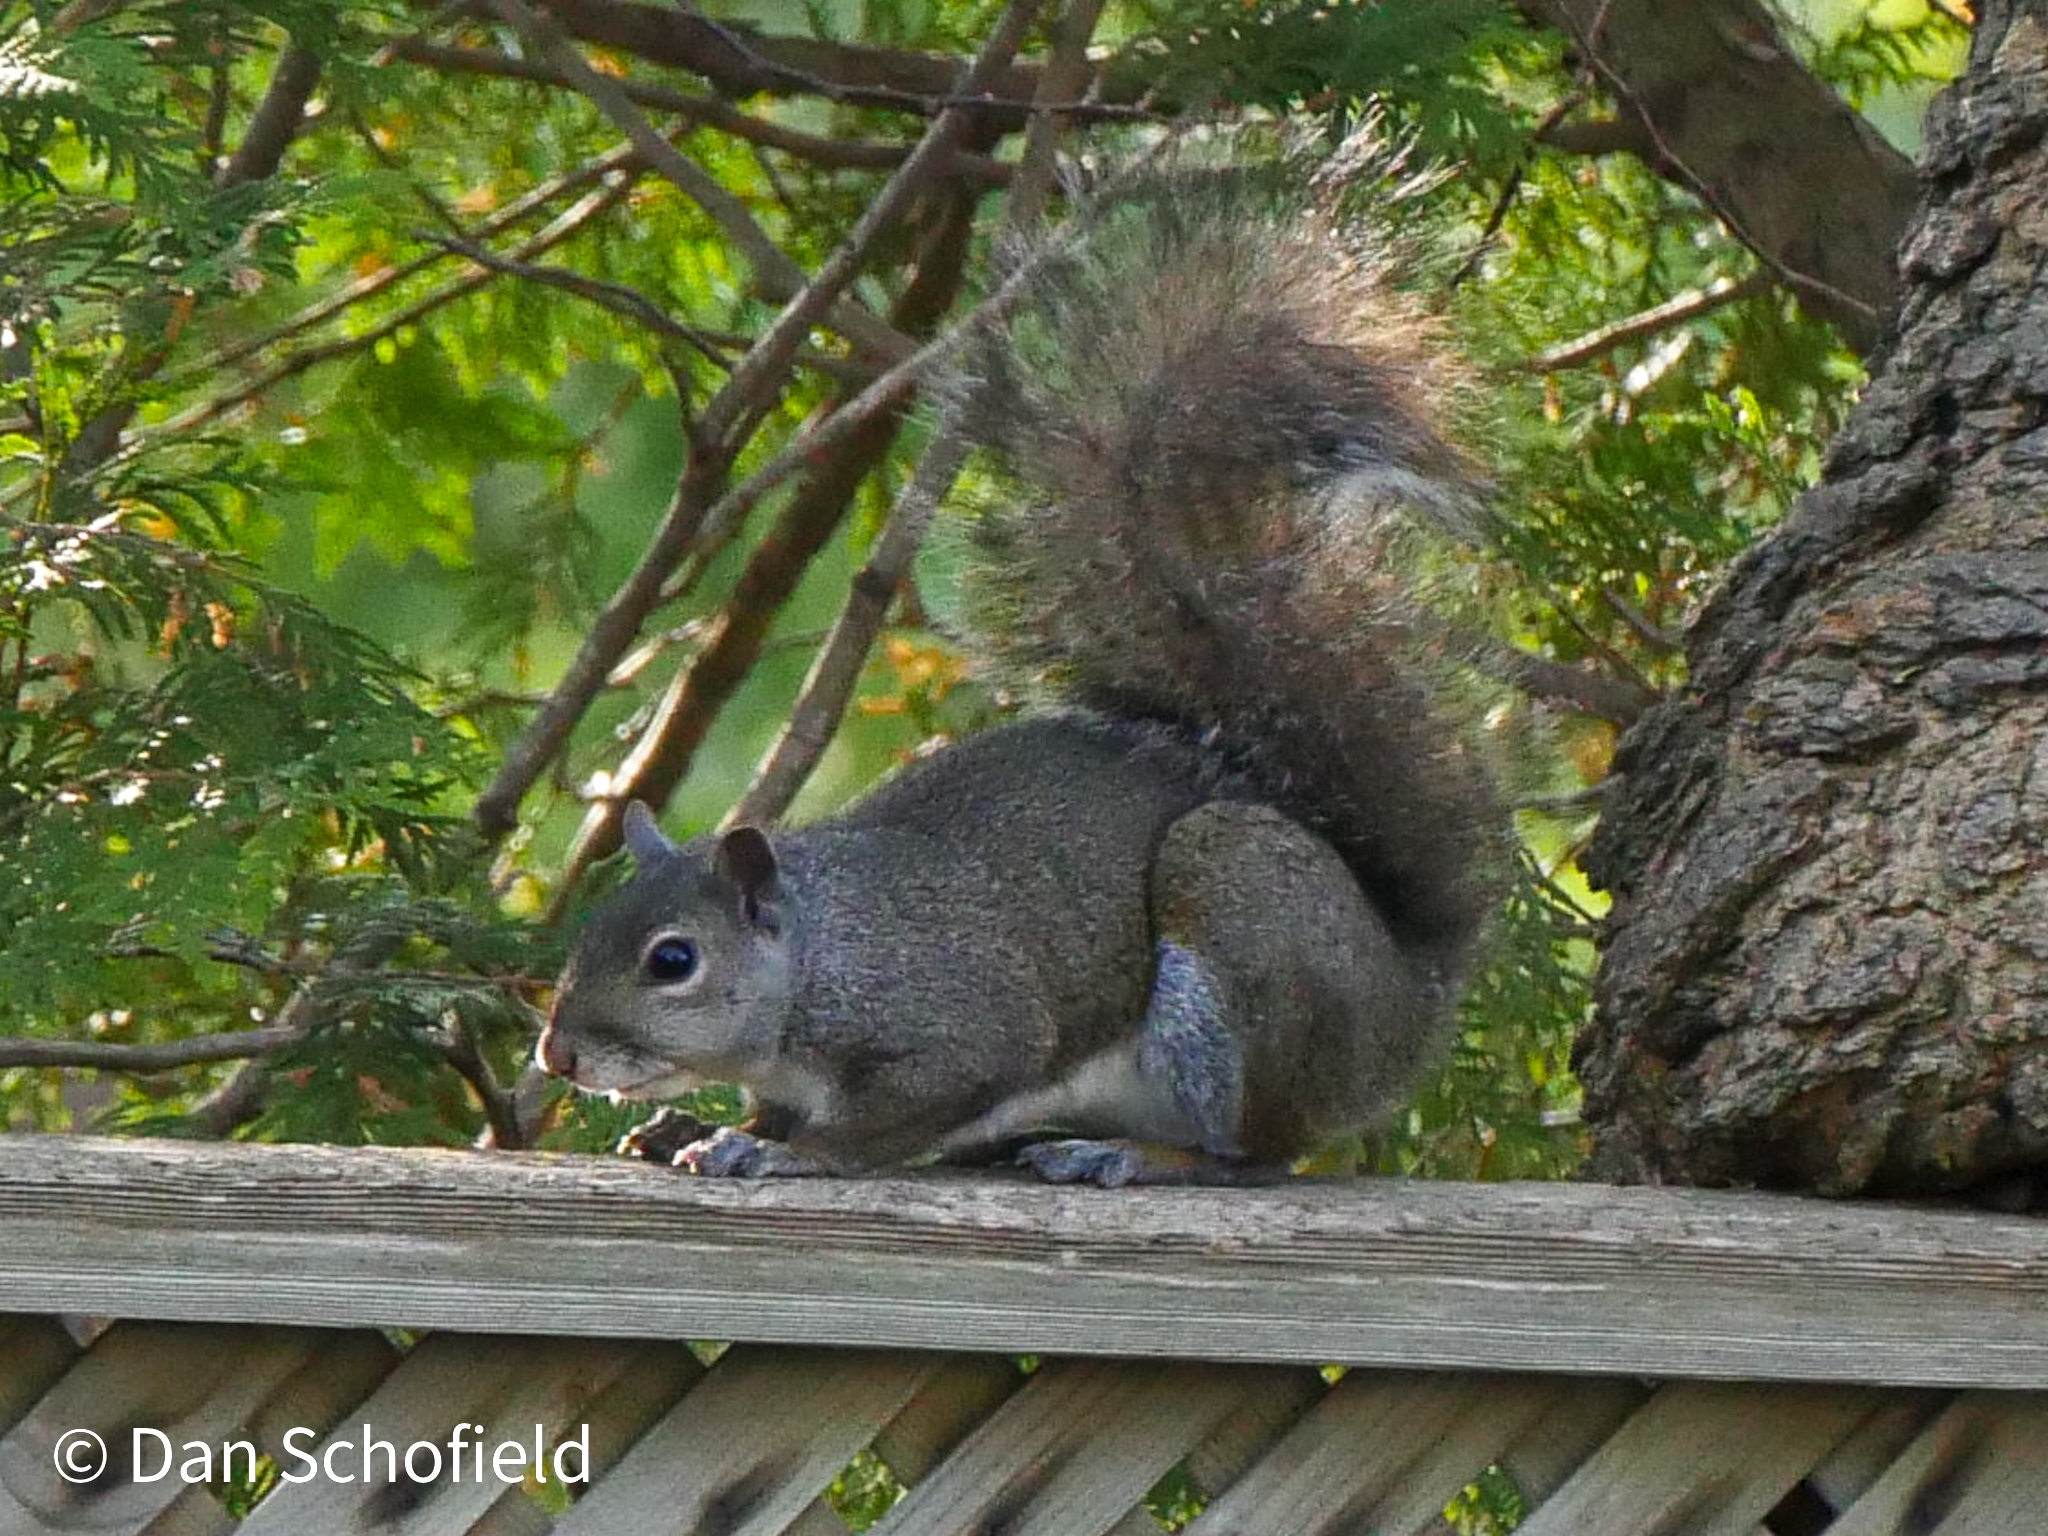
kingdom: Animalia
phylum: Chordata
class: Mammalia
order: Rodentia
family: Sciuridae
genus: Sciurus
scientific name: Sciurus carolinensis
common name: Eastern gray squirrel
